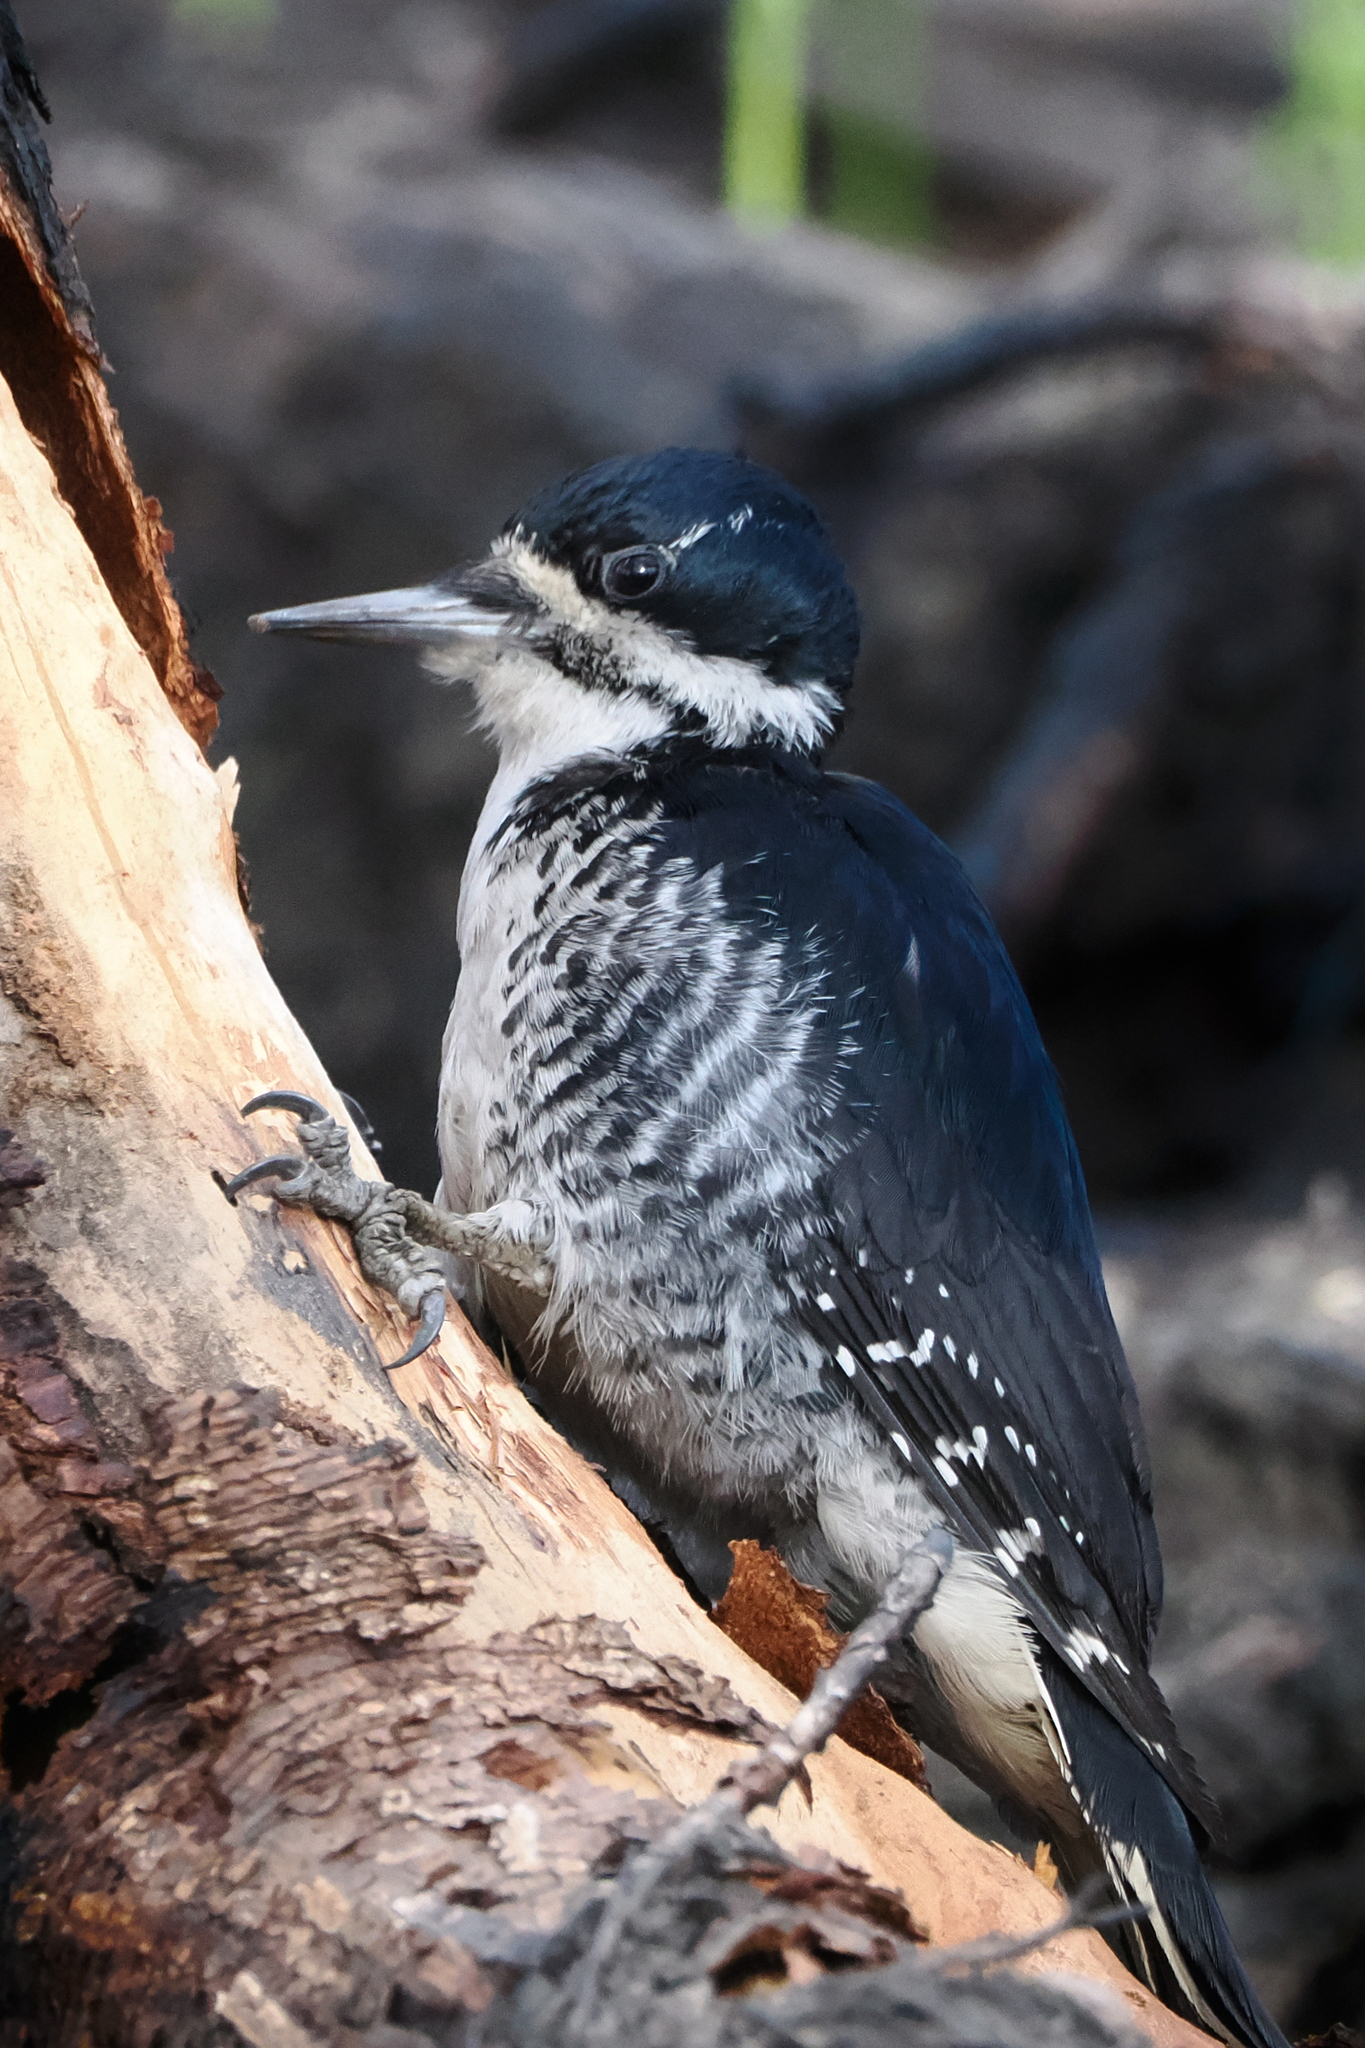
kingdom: Animalia
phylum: Chordata
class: Aves
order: Piciformes
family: Picidae
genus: Picoides
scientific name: Picoides arcticus
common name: Black-backed woodpecker
